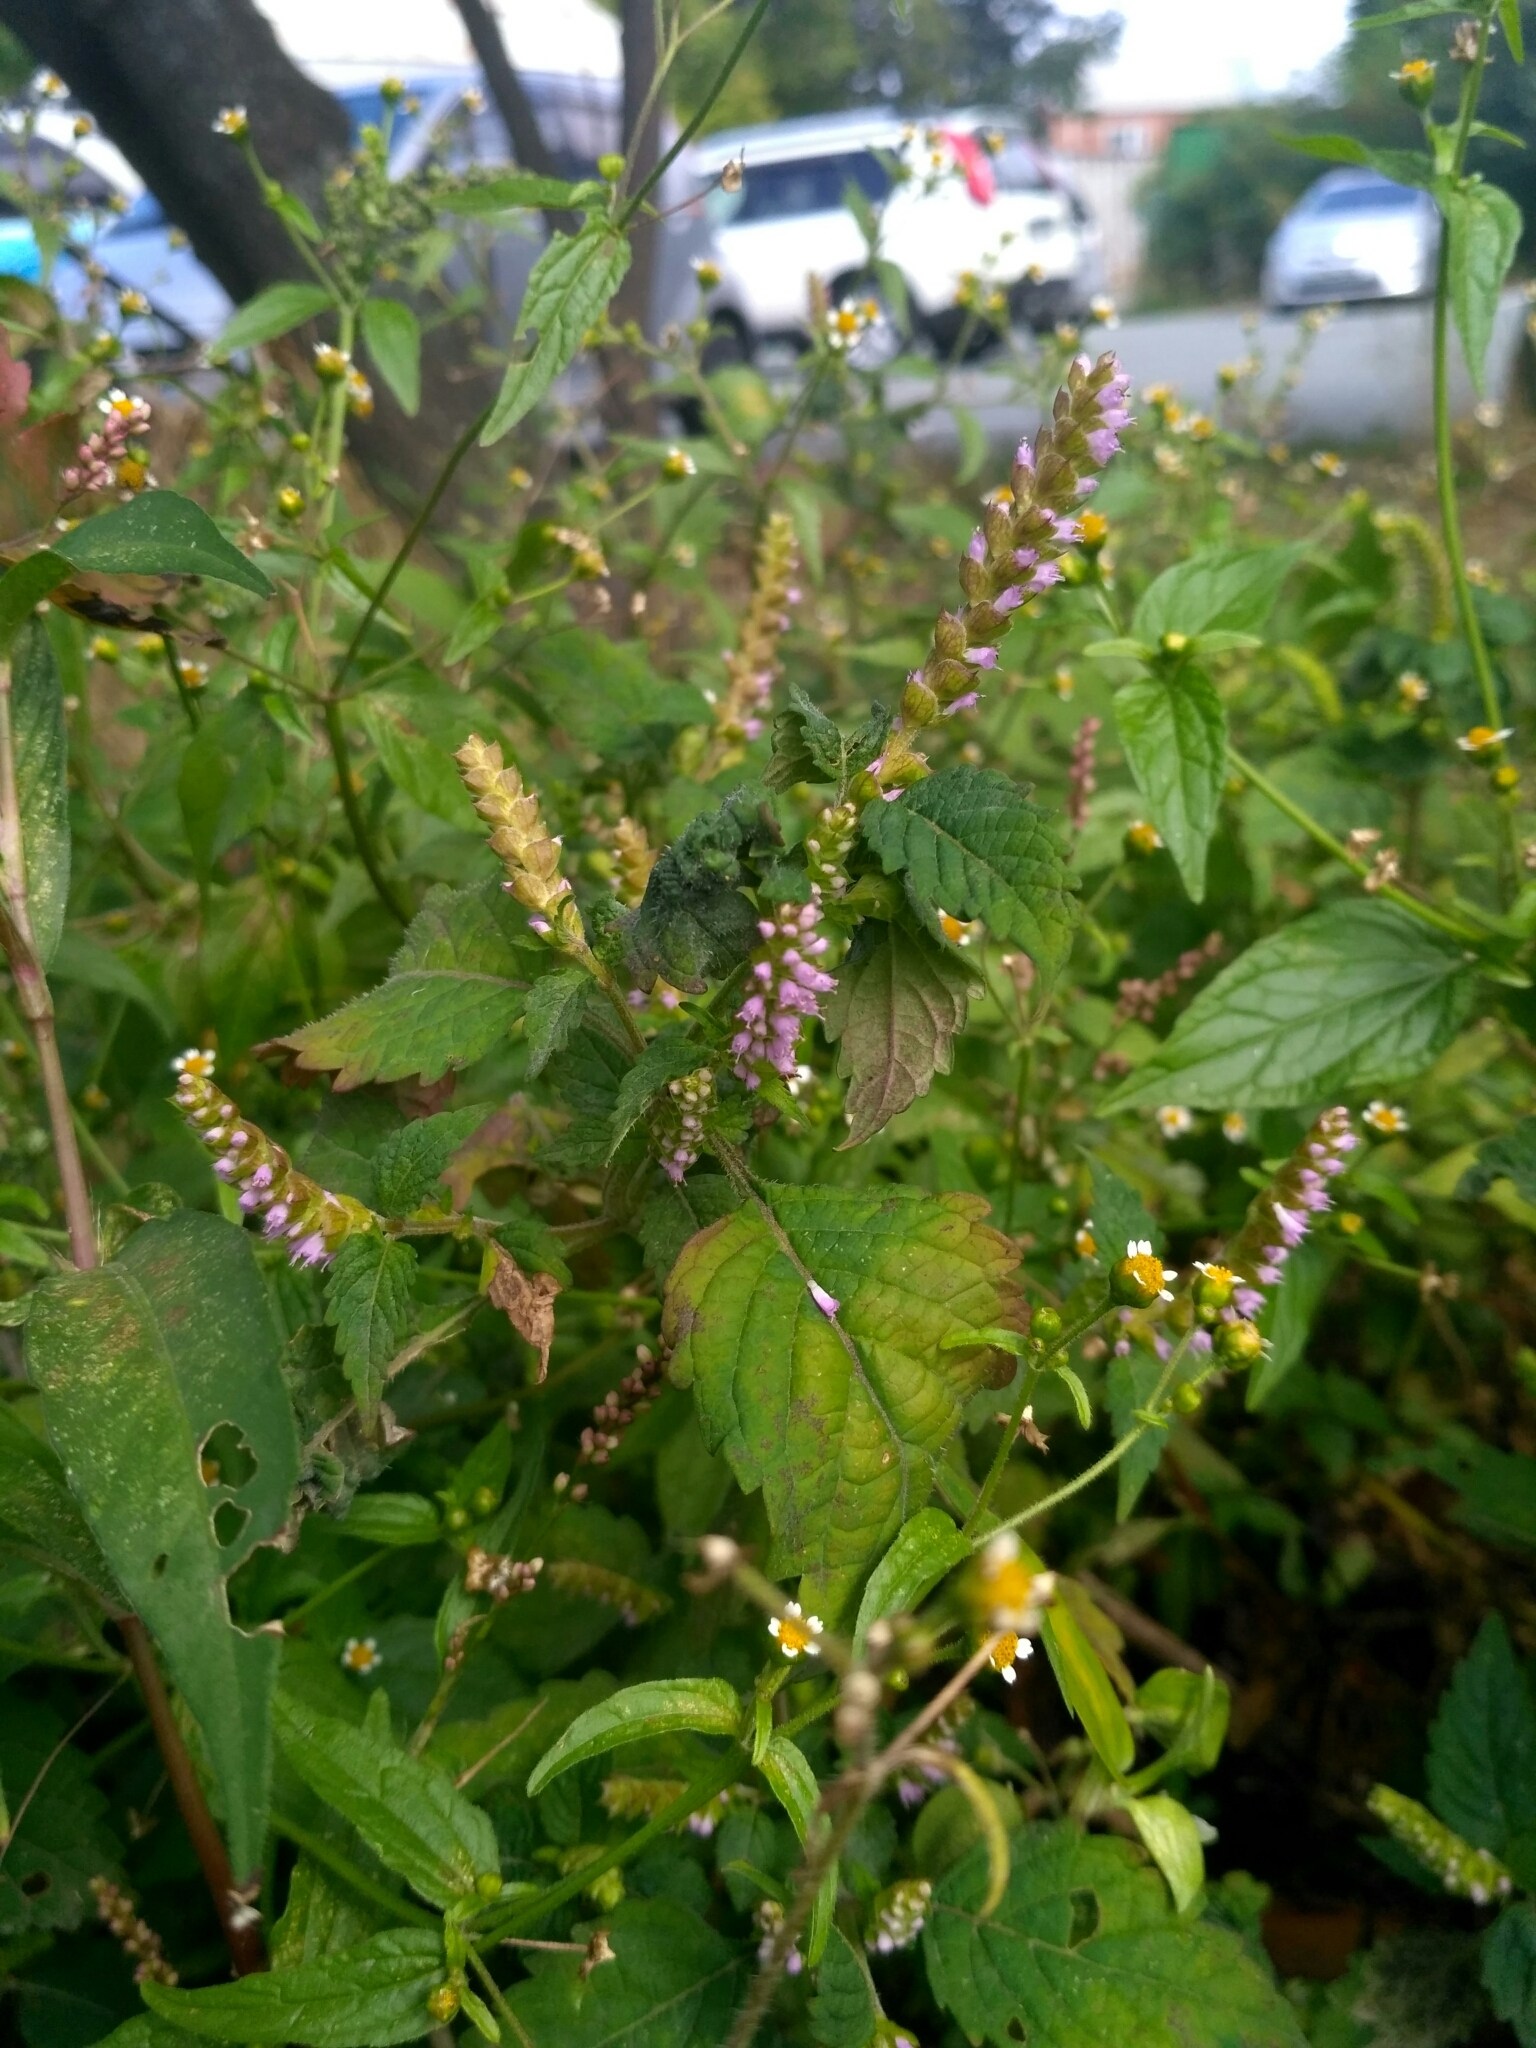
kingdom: Plantae
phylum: Tracheophyta
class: Magnoliopsida
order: Lamiales
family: Lamiaceae
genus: Elsholtzia
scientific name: Elsholtzia ciliata
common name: Ciliate elsholtzia
